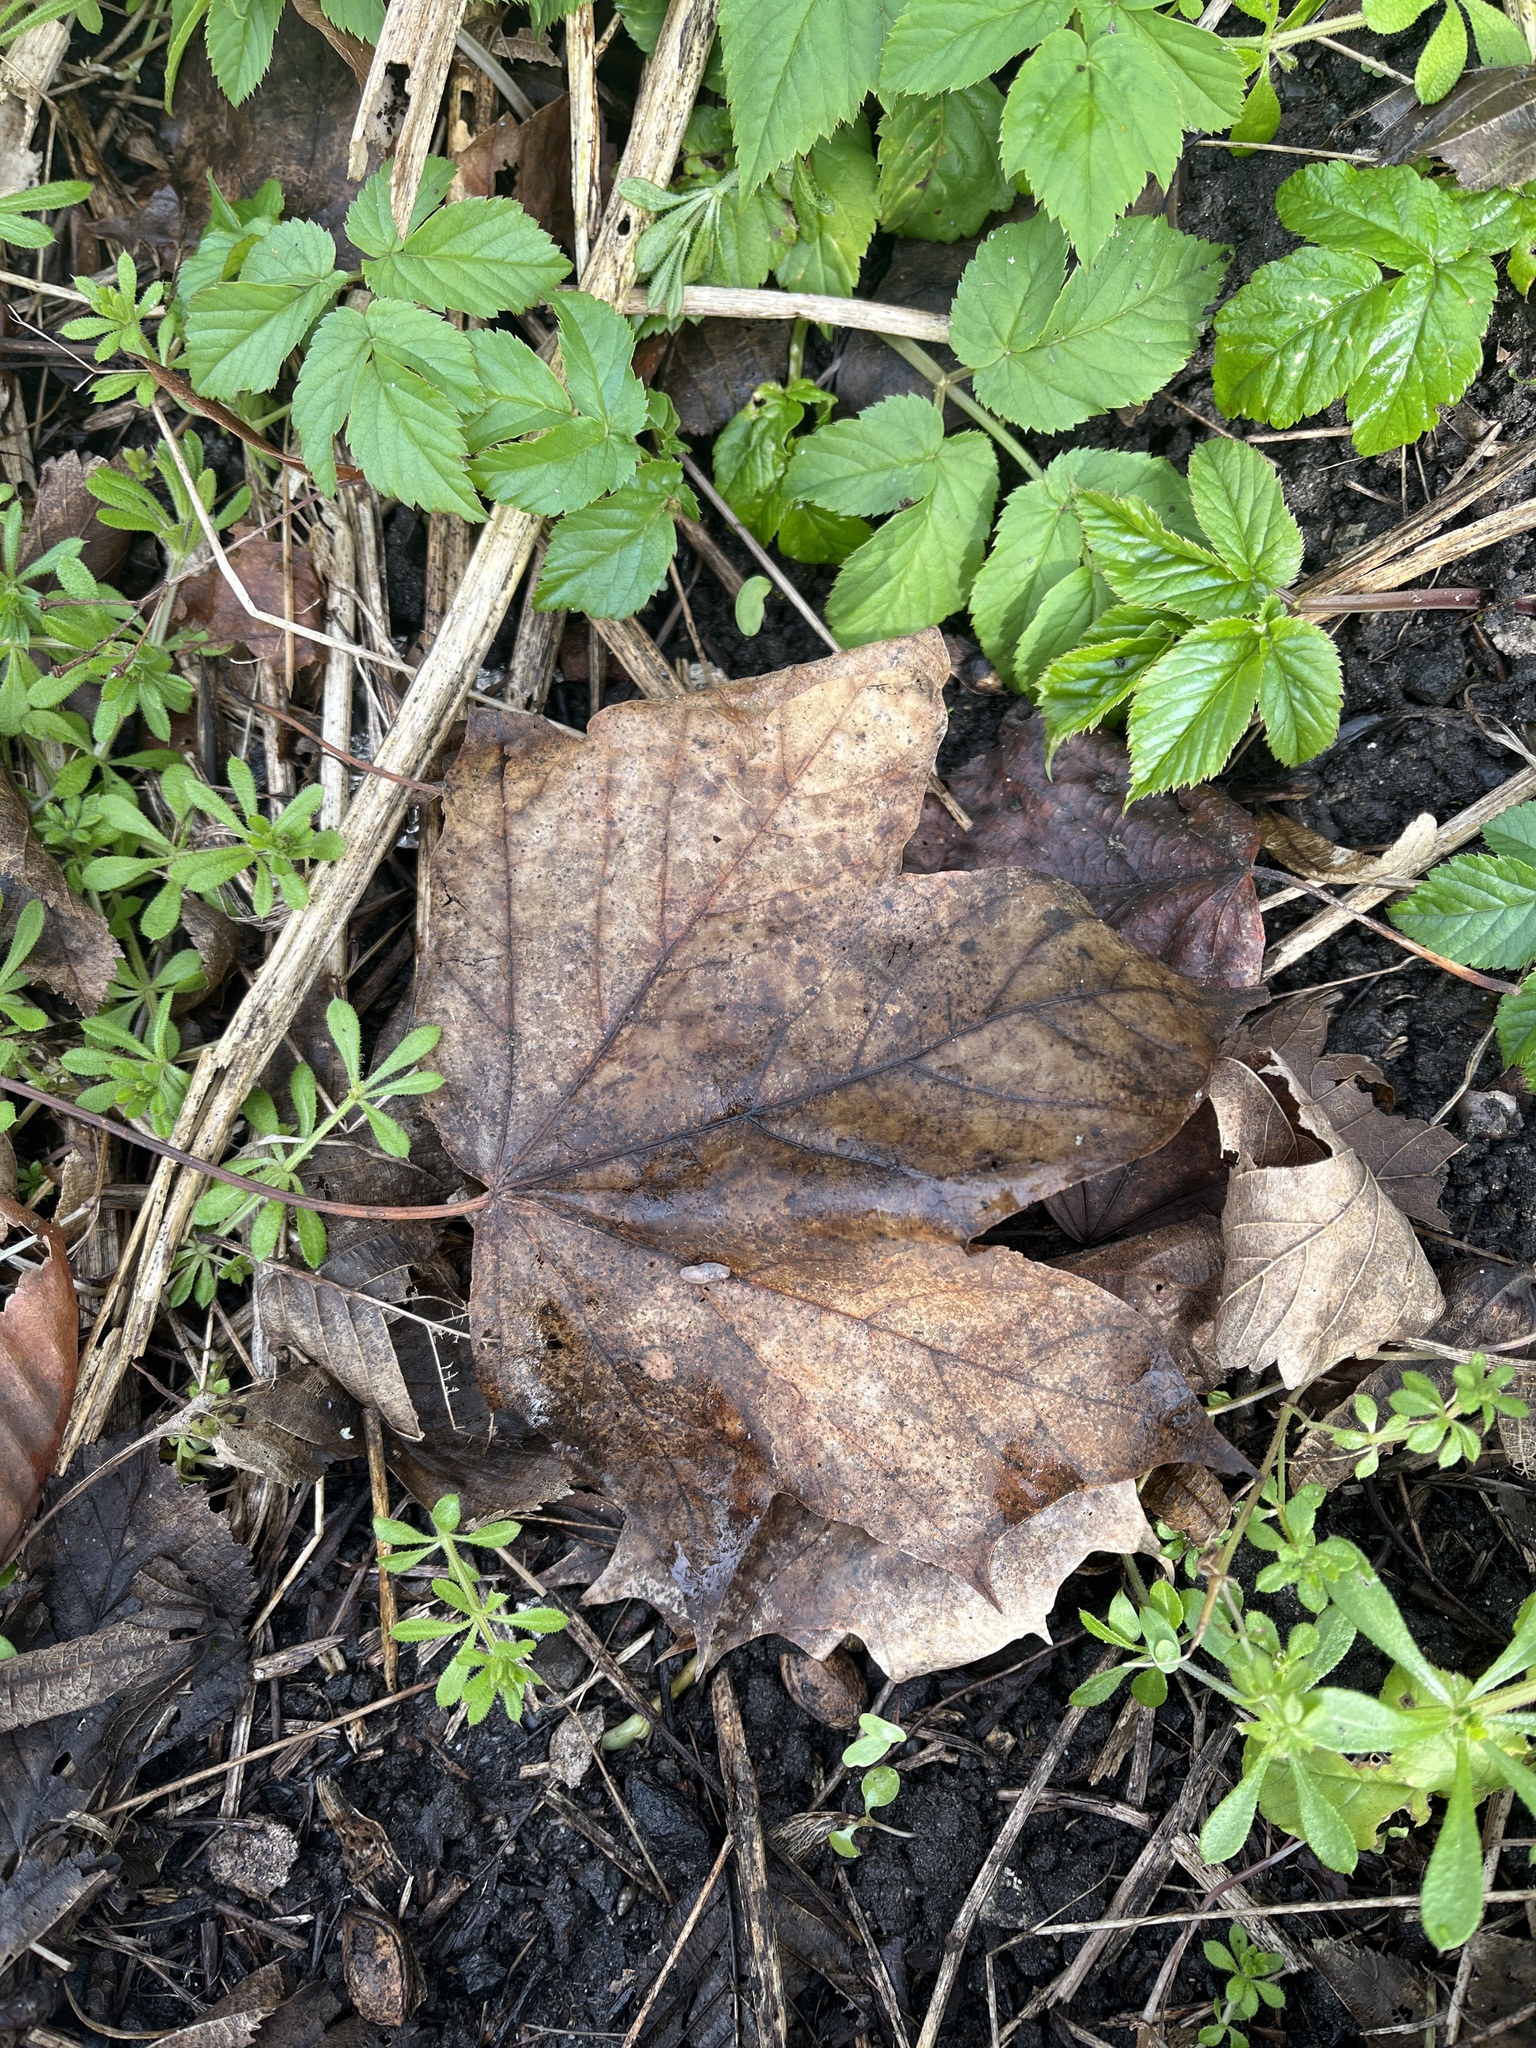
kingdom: Plantae
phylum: Tracheophyta
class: Magnoliopsida
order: Sapindales
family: Sapindaceae
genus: Acer
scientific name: Acer pseudoplatanus
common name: Sycamore
